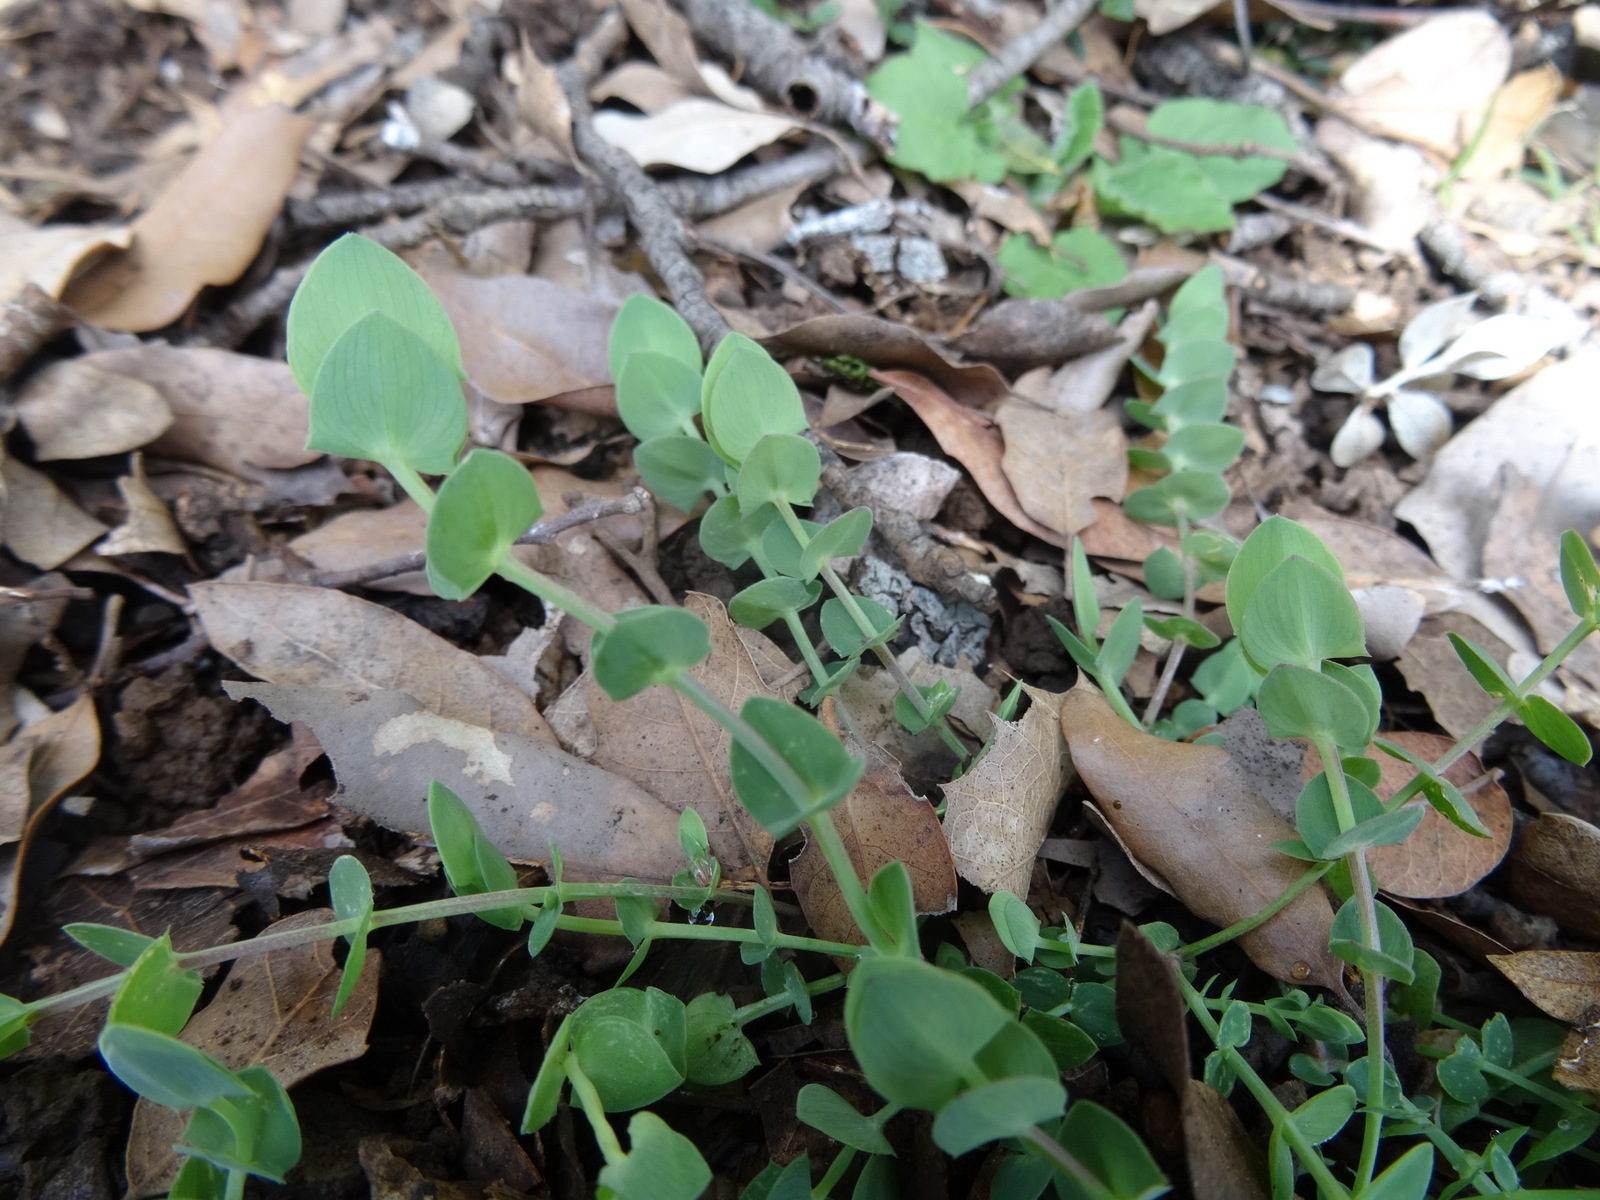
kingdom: Plantae
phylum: Tracheophyta
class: Magnoliopsida
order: Fabales
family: Fabaceae
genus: Lathyrus
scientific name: Lathyrus aphaca
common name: Yellow vetchling
